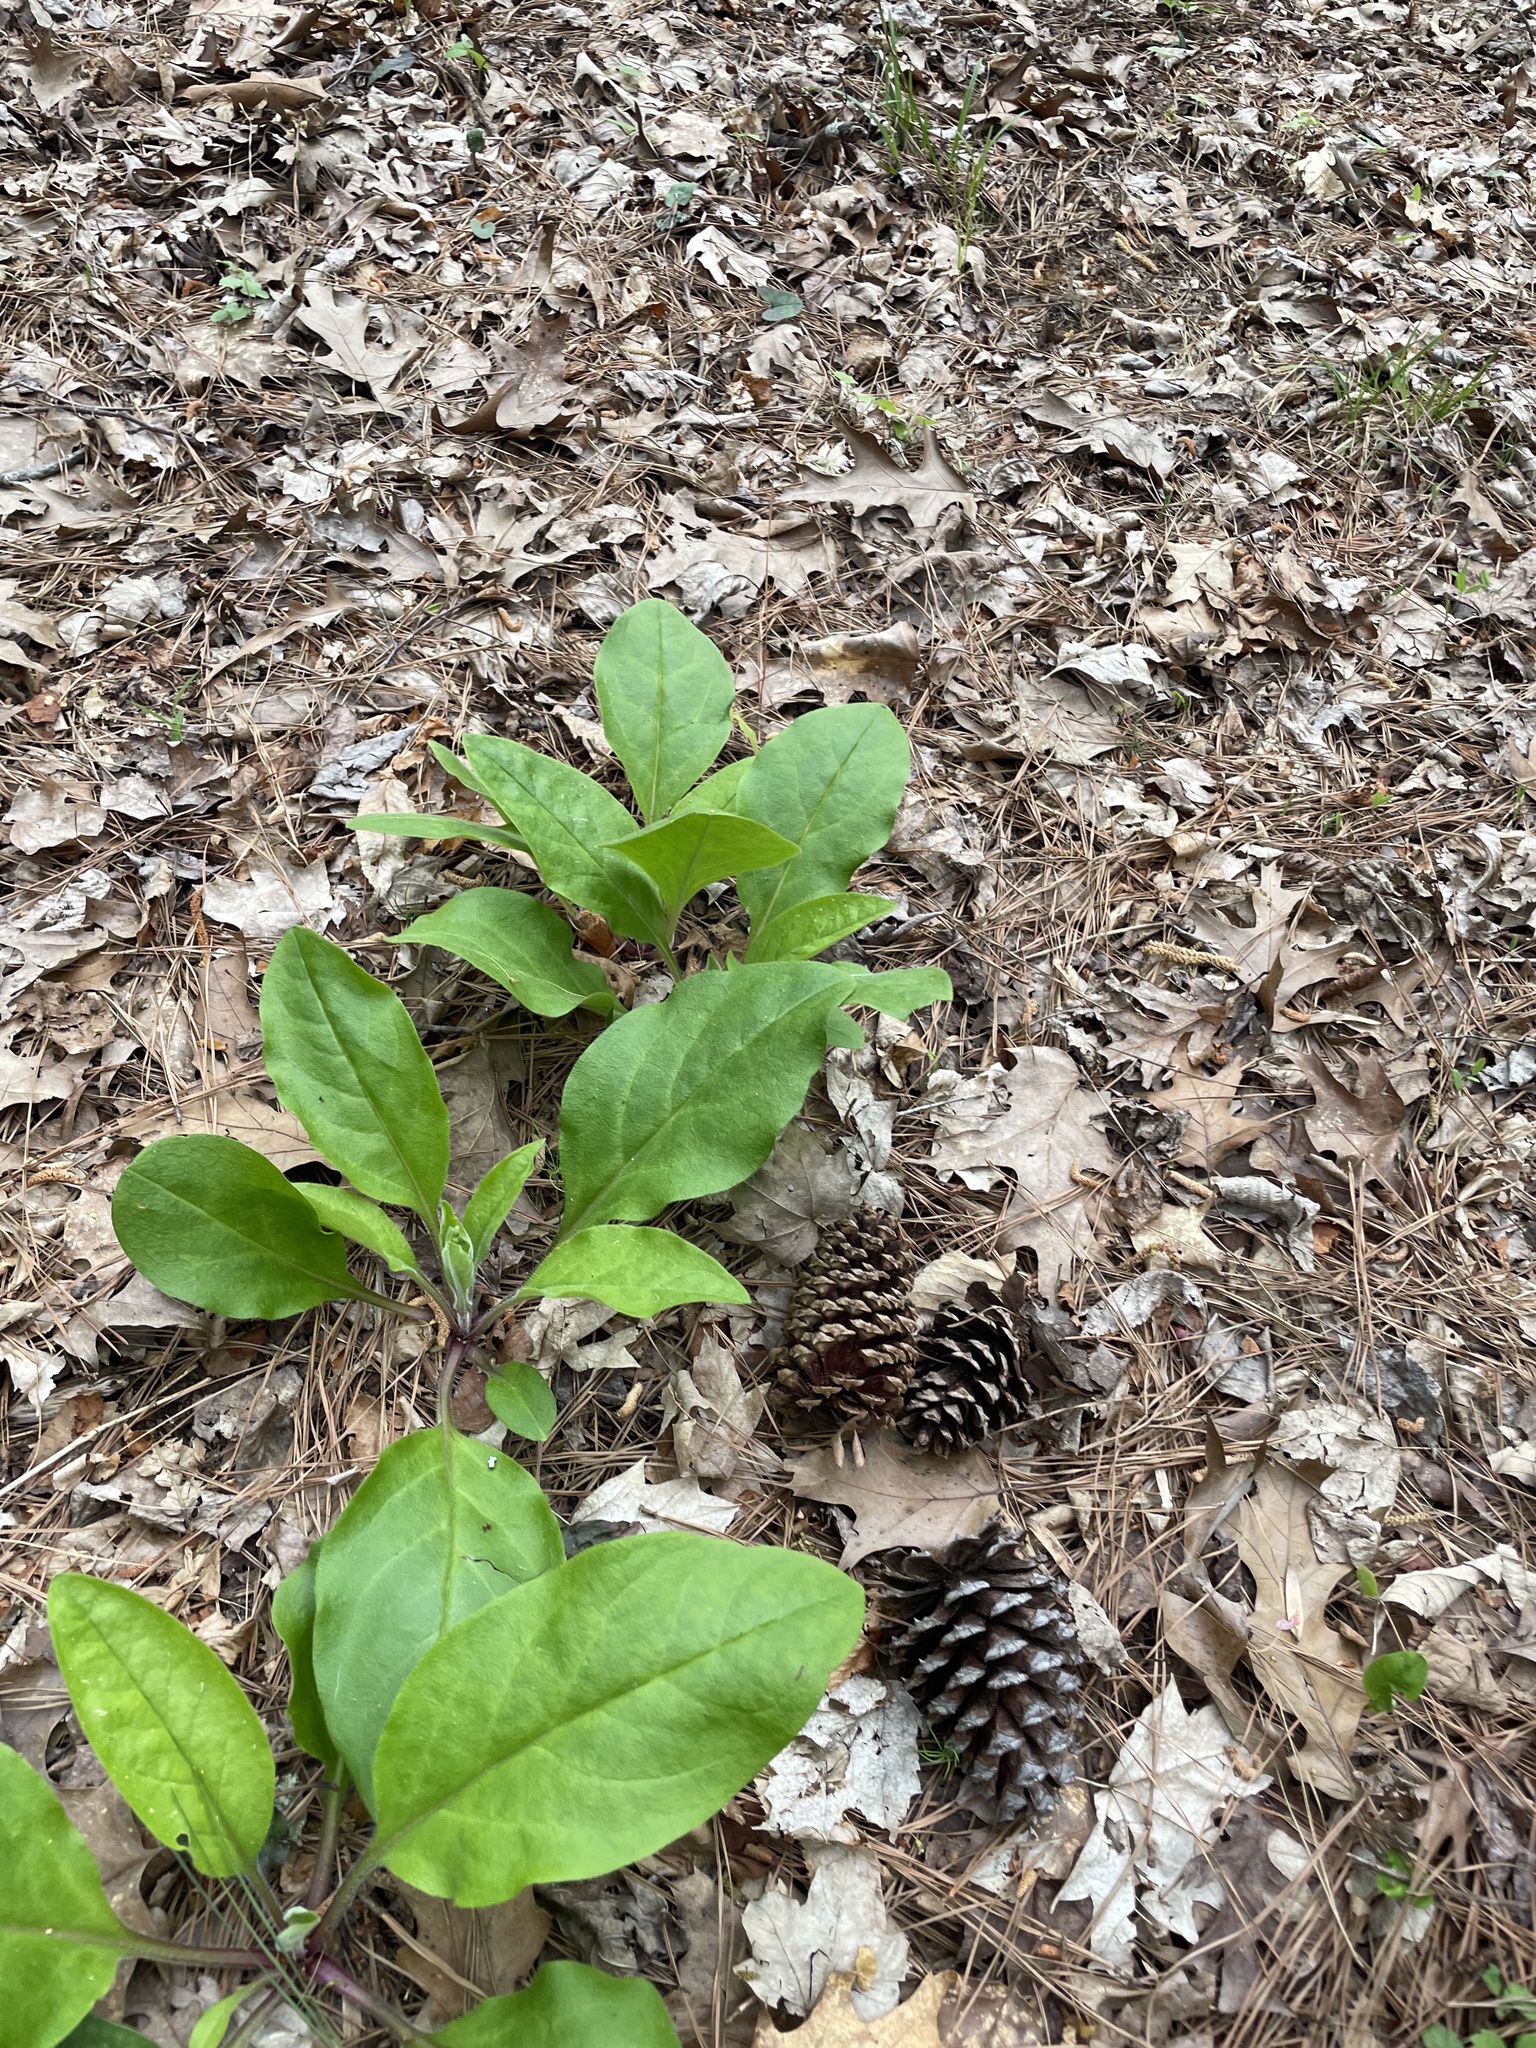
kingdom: Plantae
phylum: Tracheophyta
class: Magnoliopsida
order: Boraginales
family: Boraginaceae
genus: Andersonglossum
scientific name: Andersonglossum virginianum
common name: Wild comfrey
